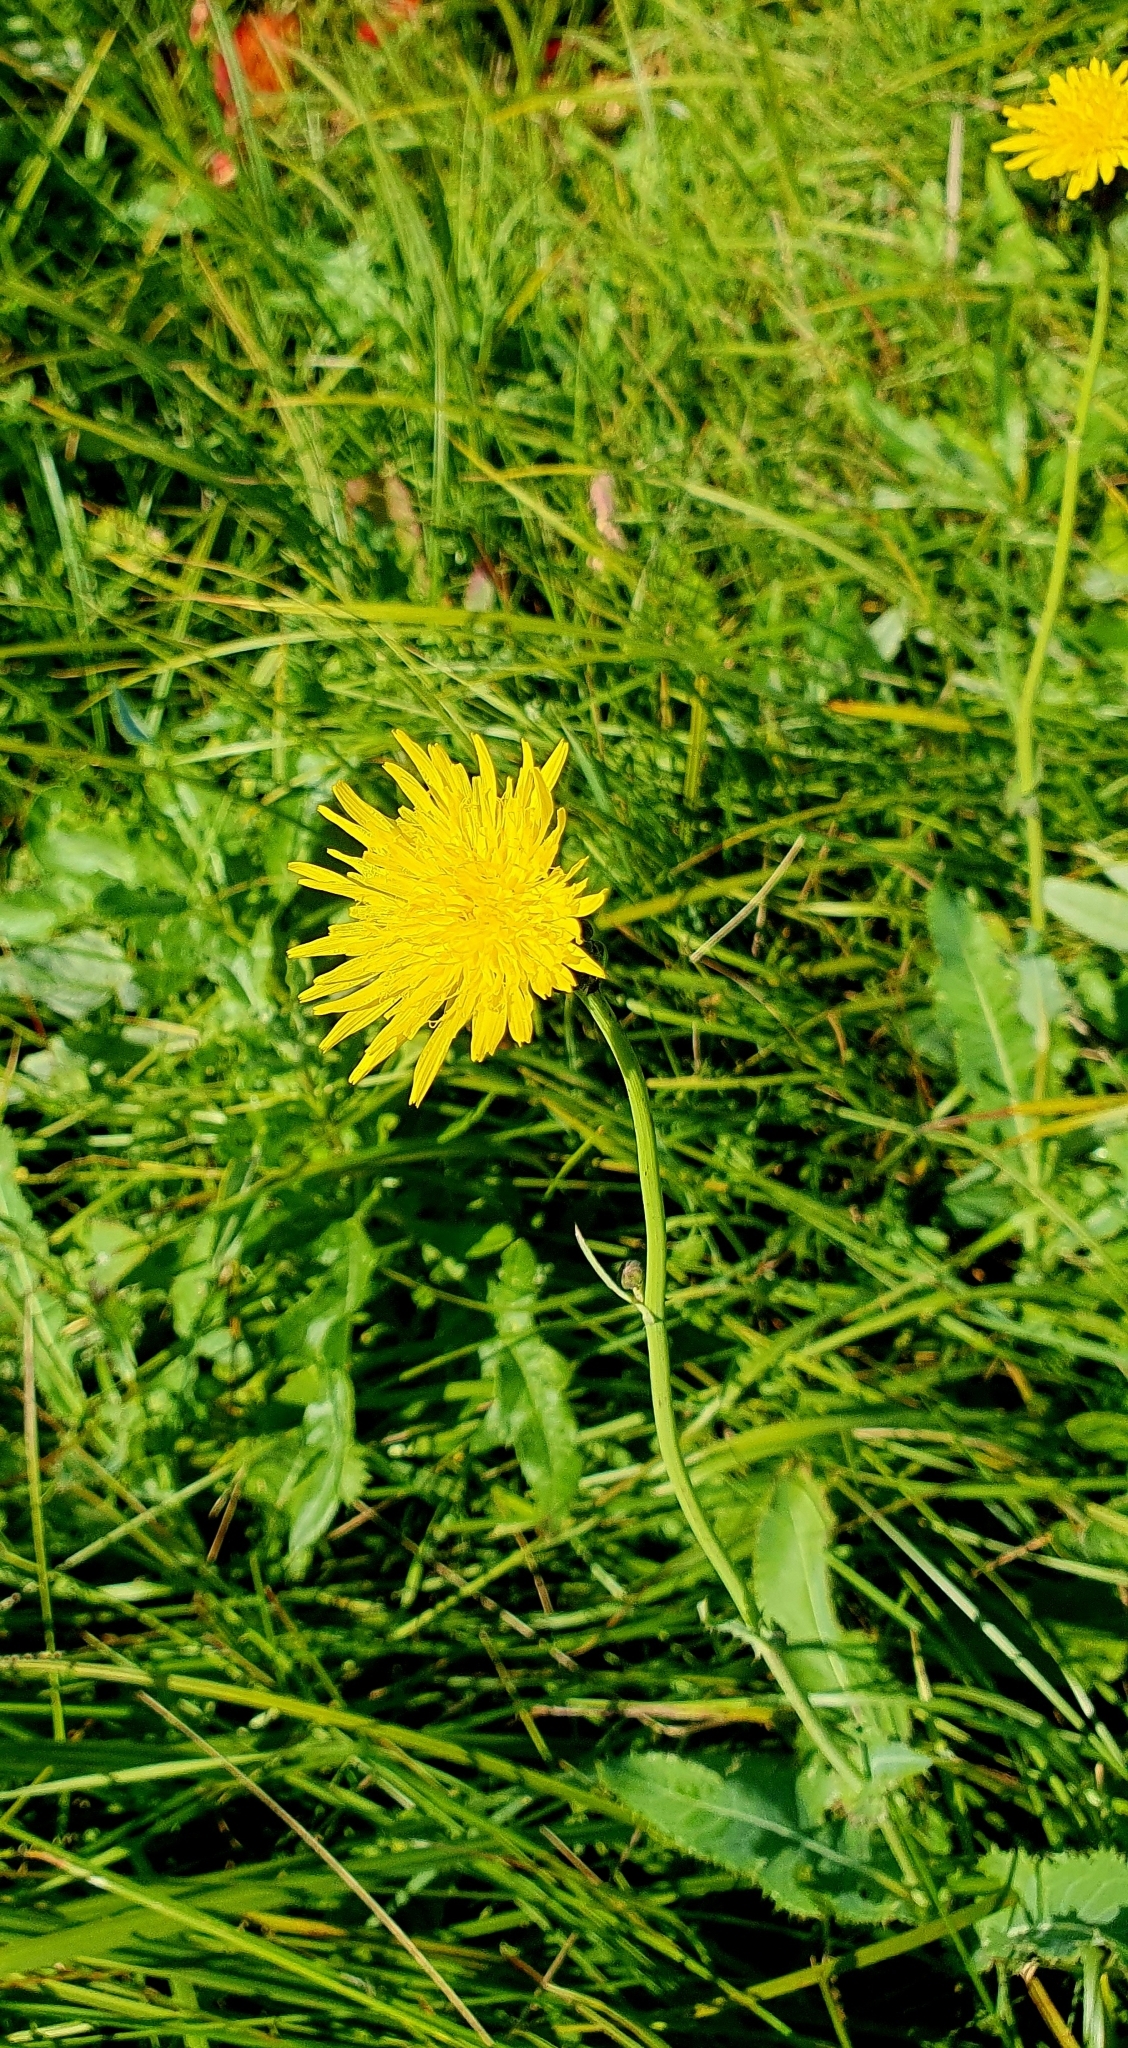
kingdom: Plantae
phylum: Tracheophyta
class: Magnoliopsida
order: Asterales
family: Asteraceae
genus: Sonchus
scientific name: Sonchus arvensis
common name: Perennial sow-thistle
